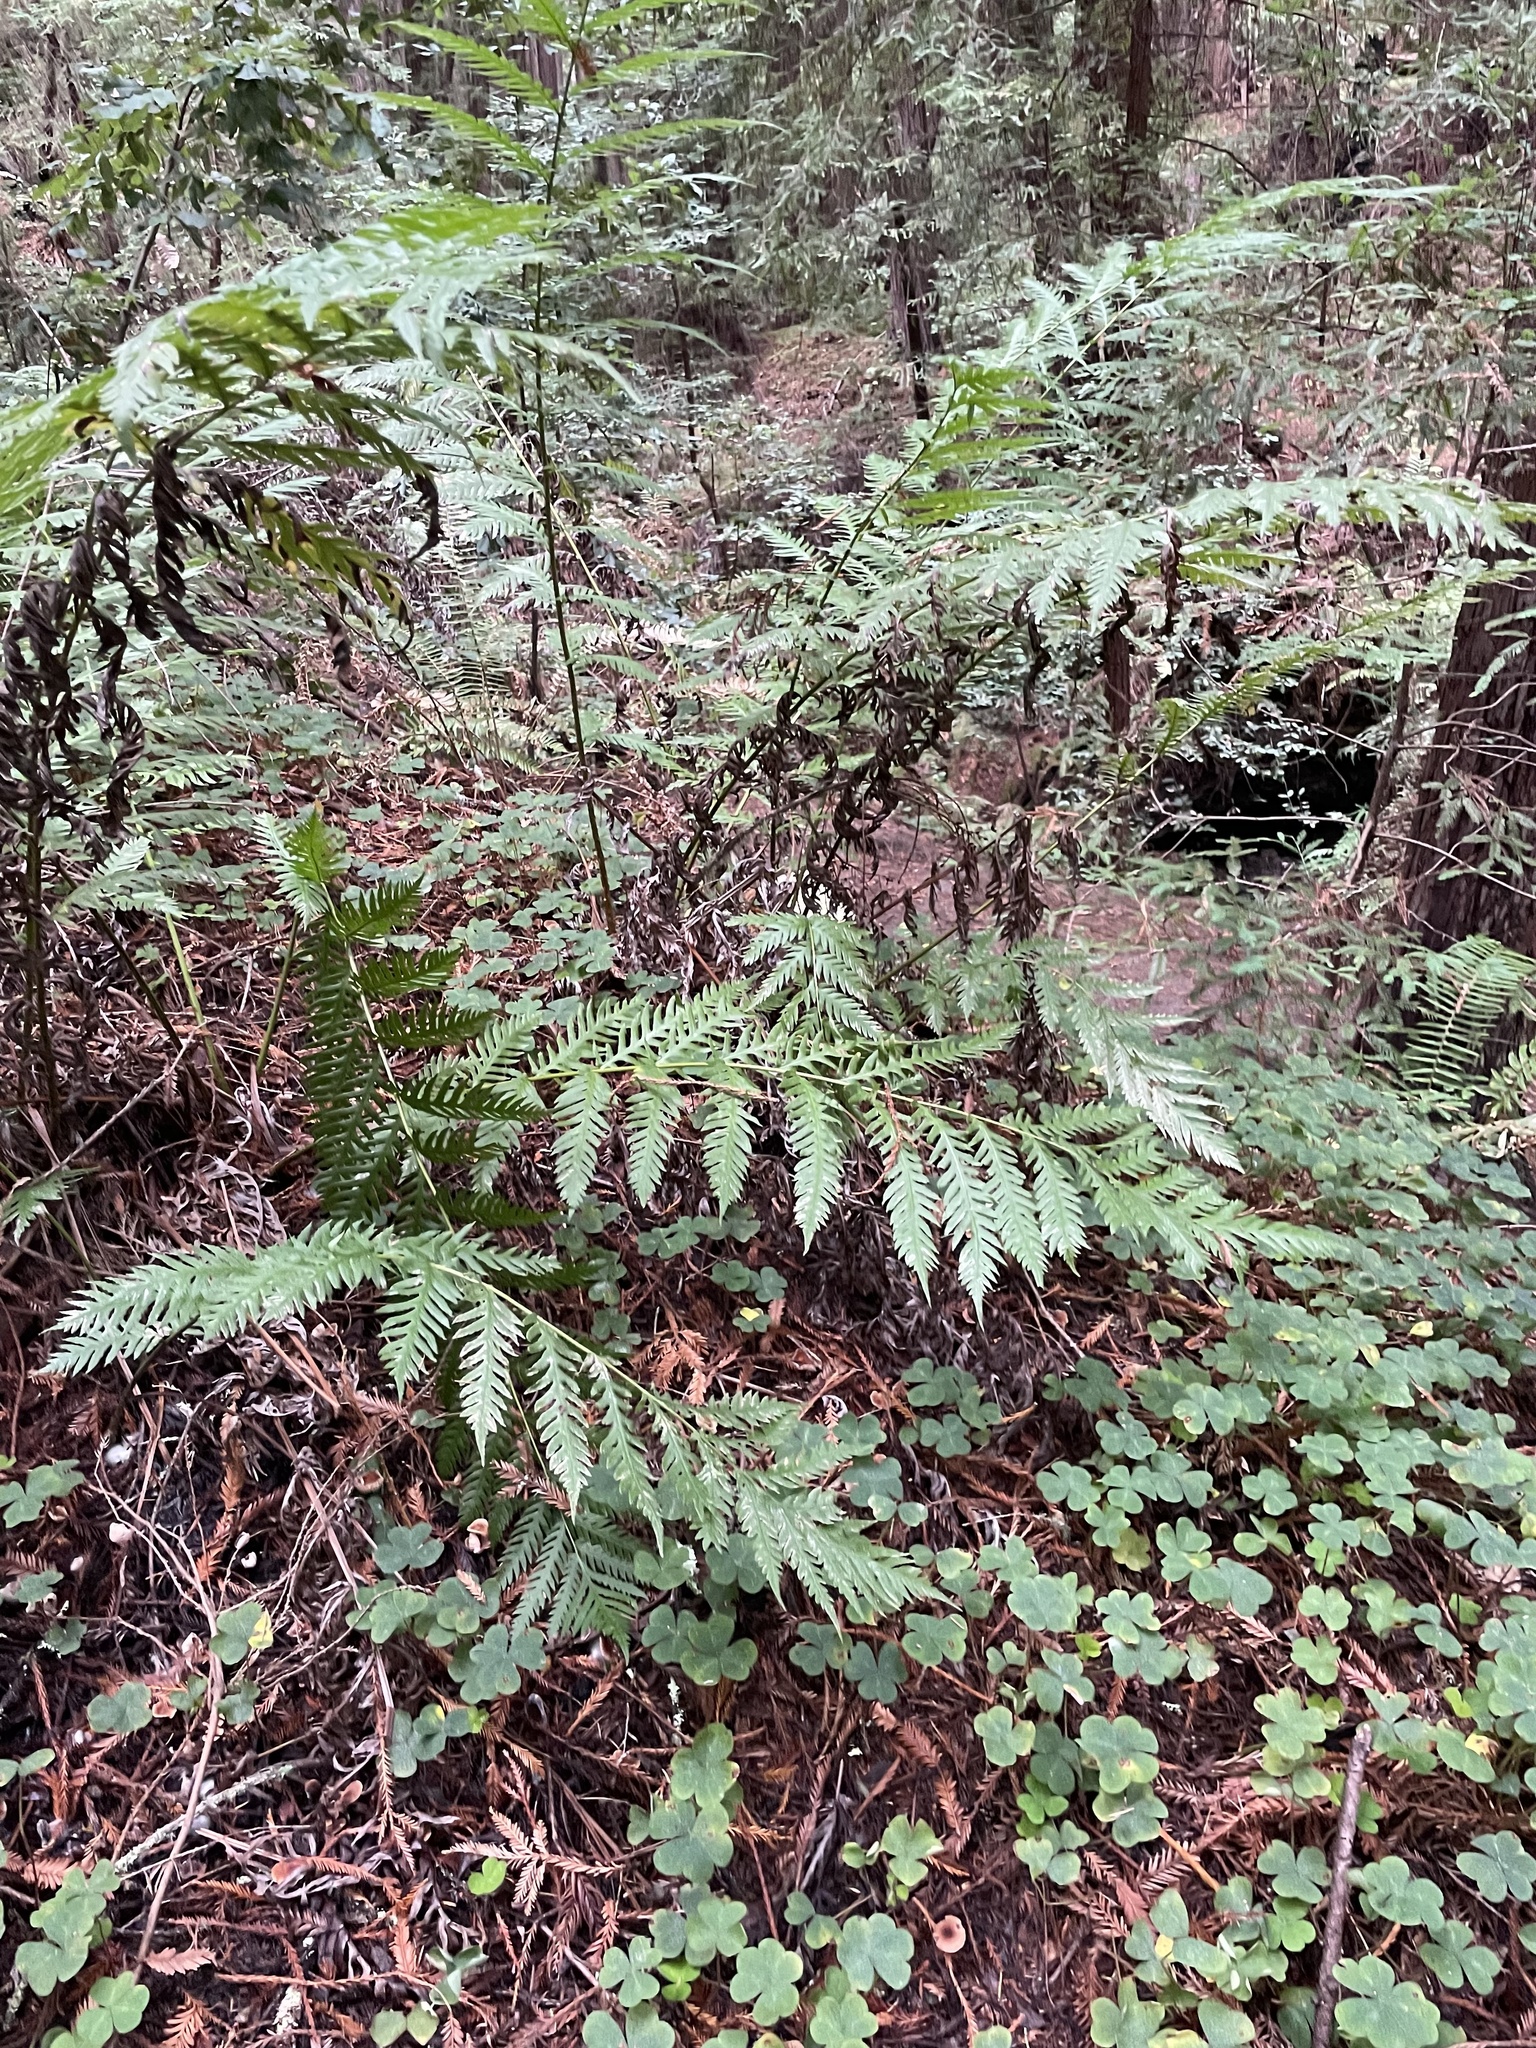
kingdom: Plantae
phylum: Tracheophyta
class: Polypodiopsida
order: Polypodiales
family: Blechnaceae
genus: Woodwardia
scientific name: Woodwardia fimbriata
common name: Giant chain fern
